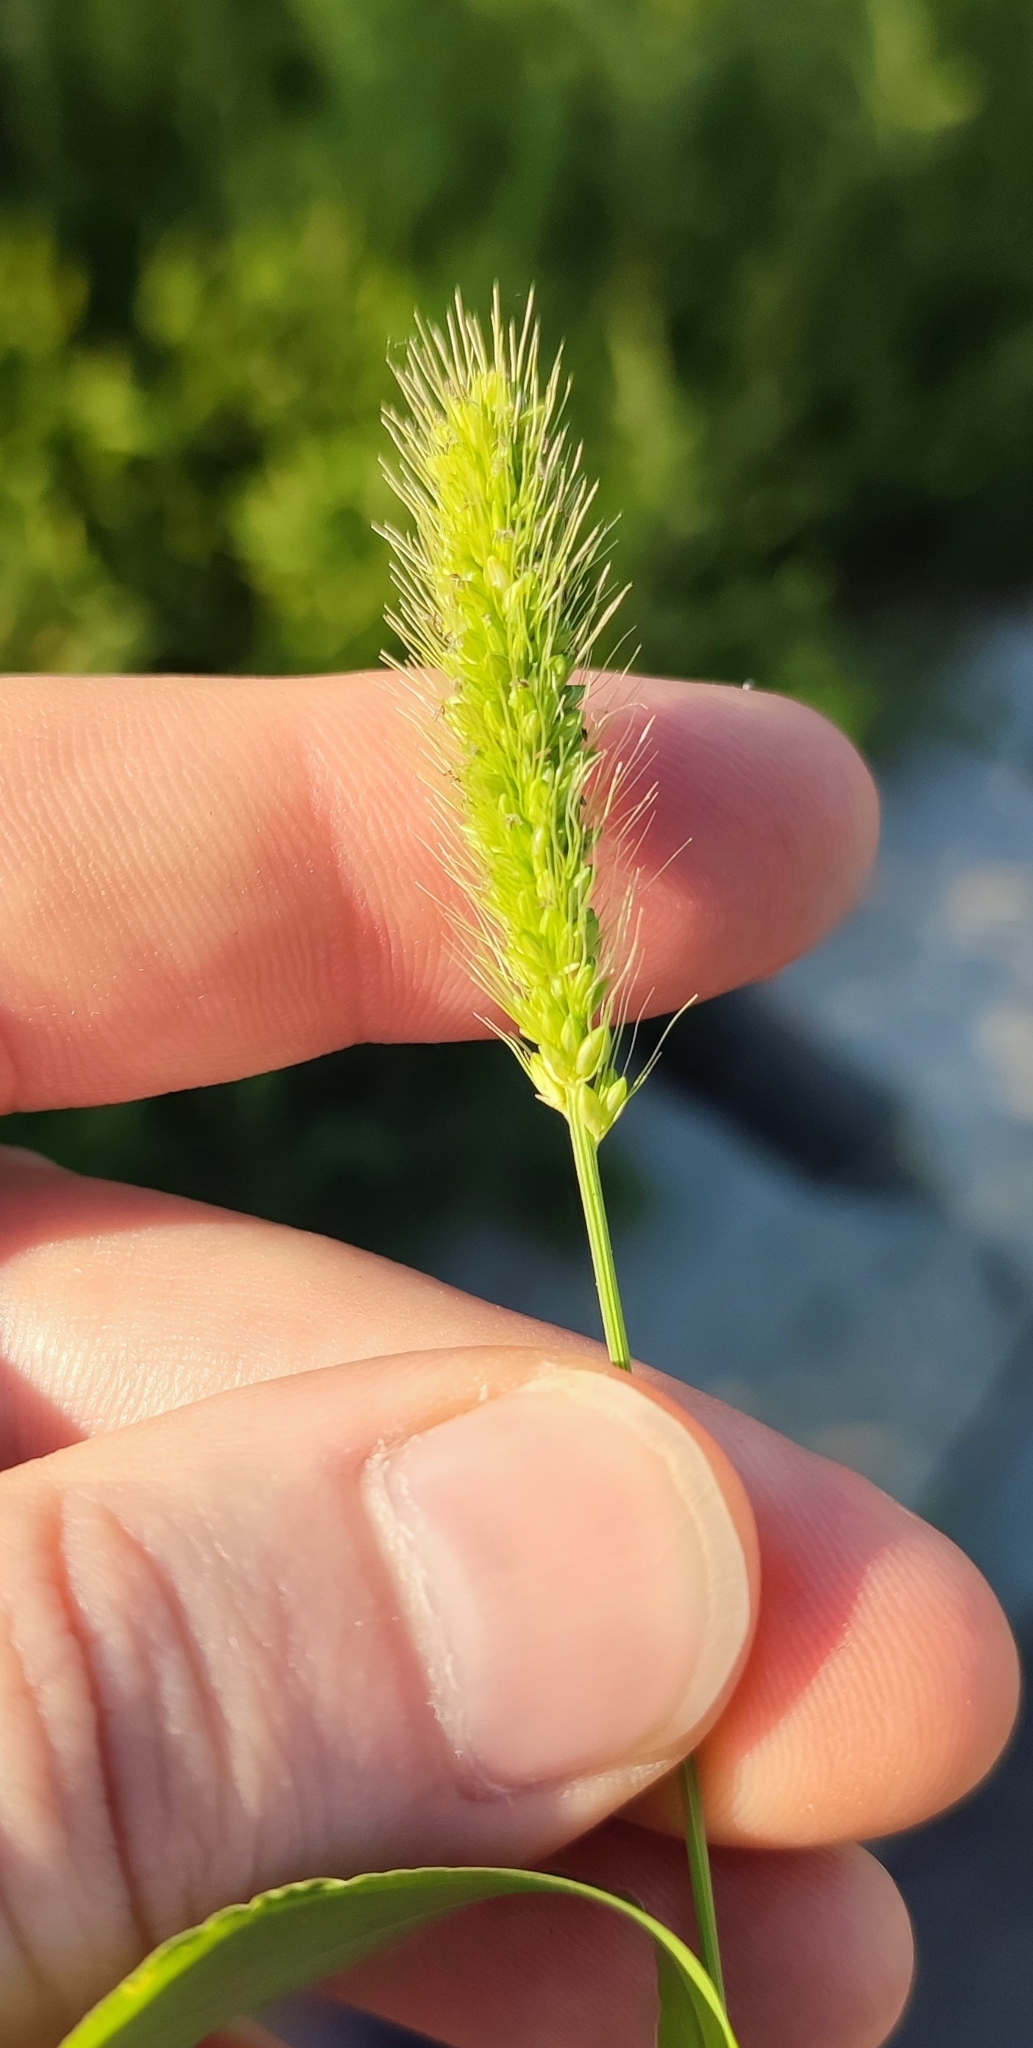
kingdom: Plantae
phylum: Tracheophyta
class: Liliopsida
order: Poales
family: Poaceae
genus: Setaria
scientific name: Setaria viridis
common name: Green bristlegrass
